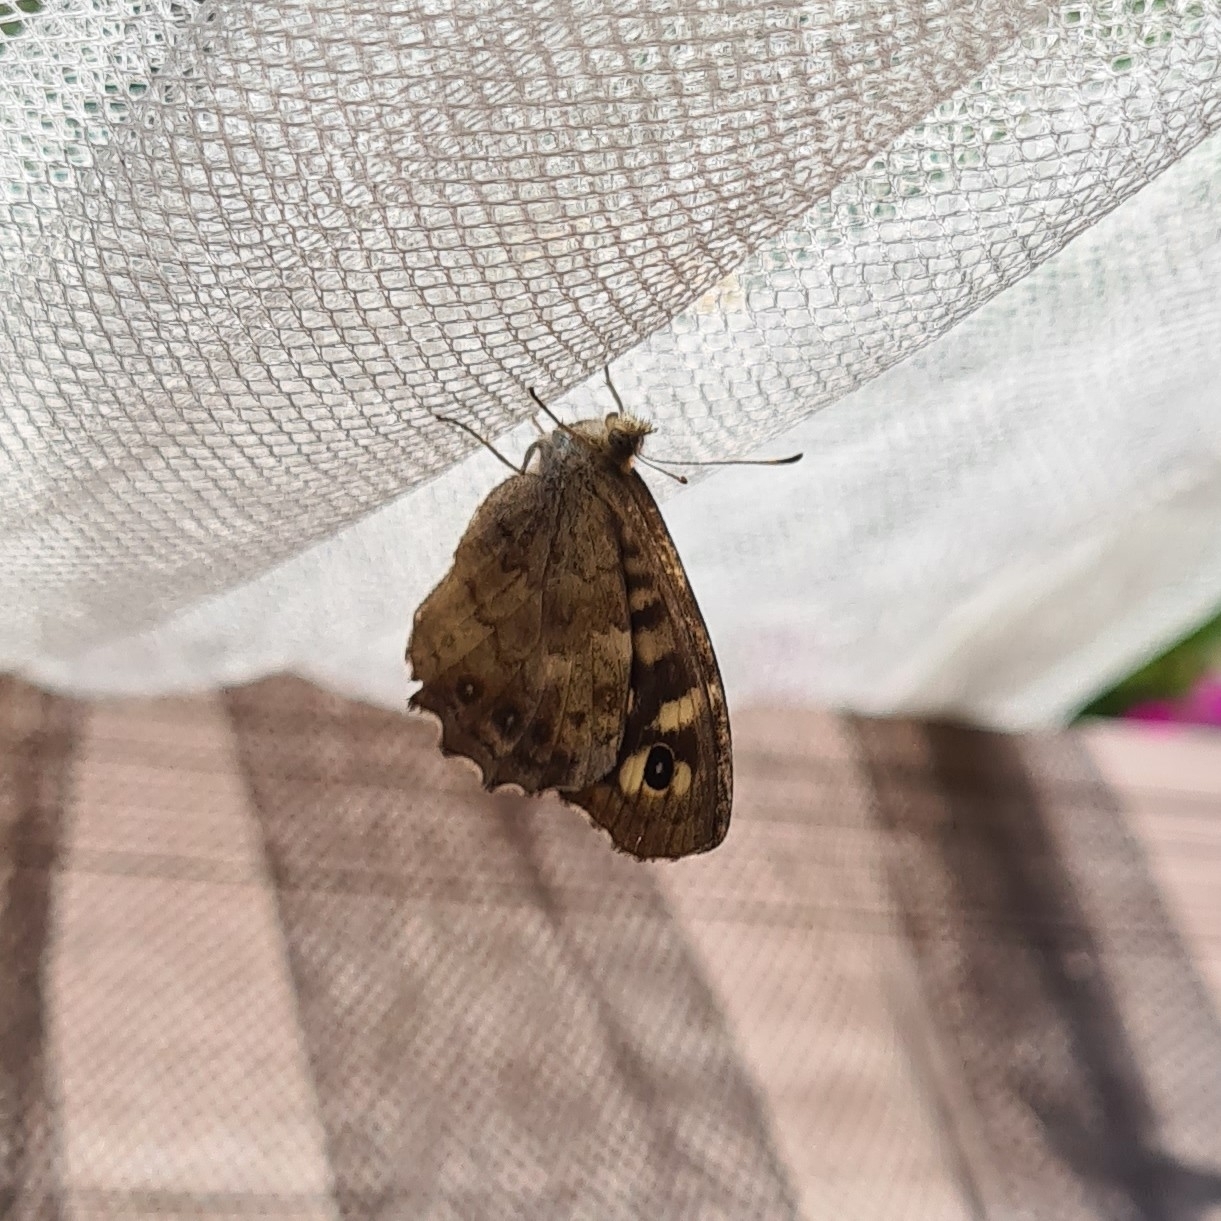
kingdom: Animalia
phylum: Arthropoda
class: Insecta
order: Lepidoptera
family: Nymphalidae
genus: Pararge
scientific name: Pararge aegeria
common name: Speckled wood
